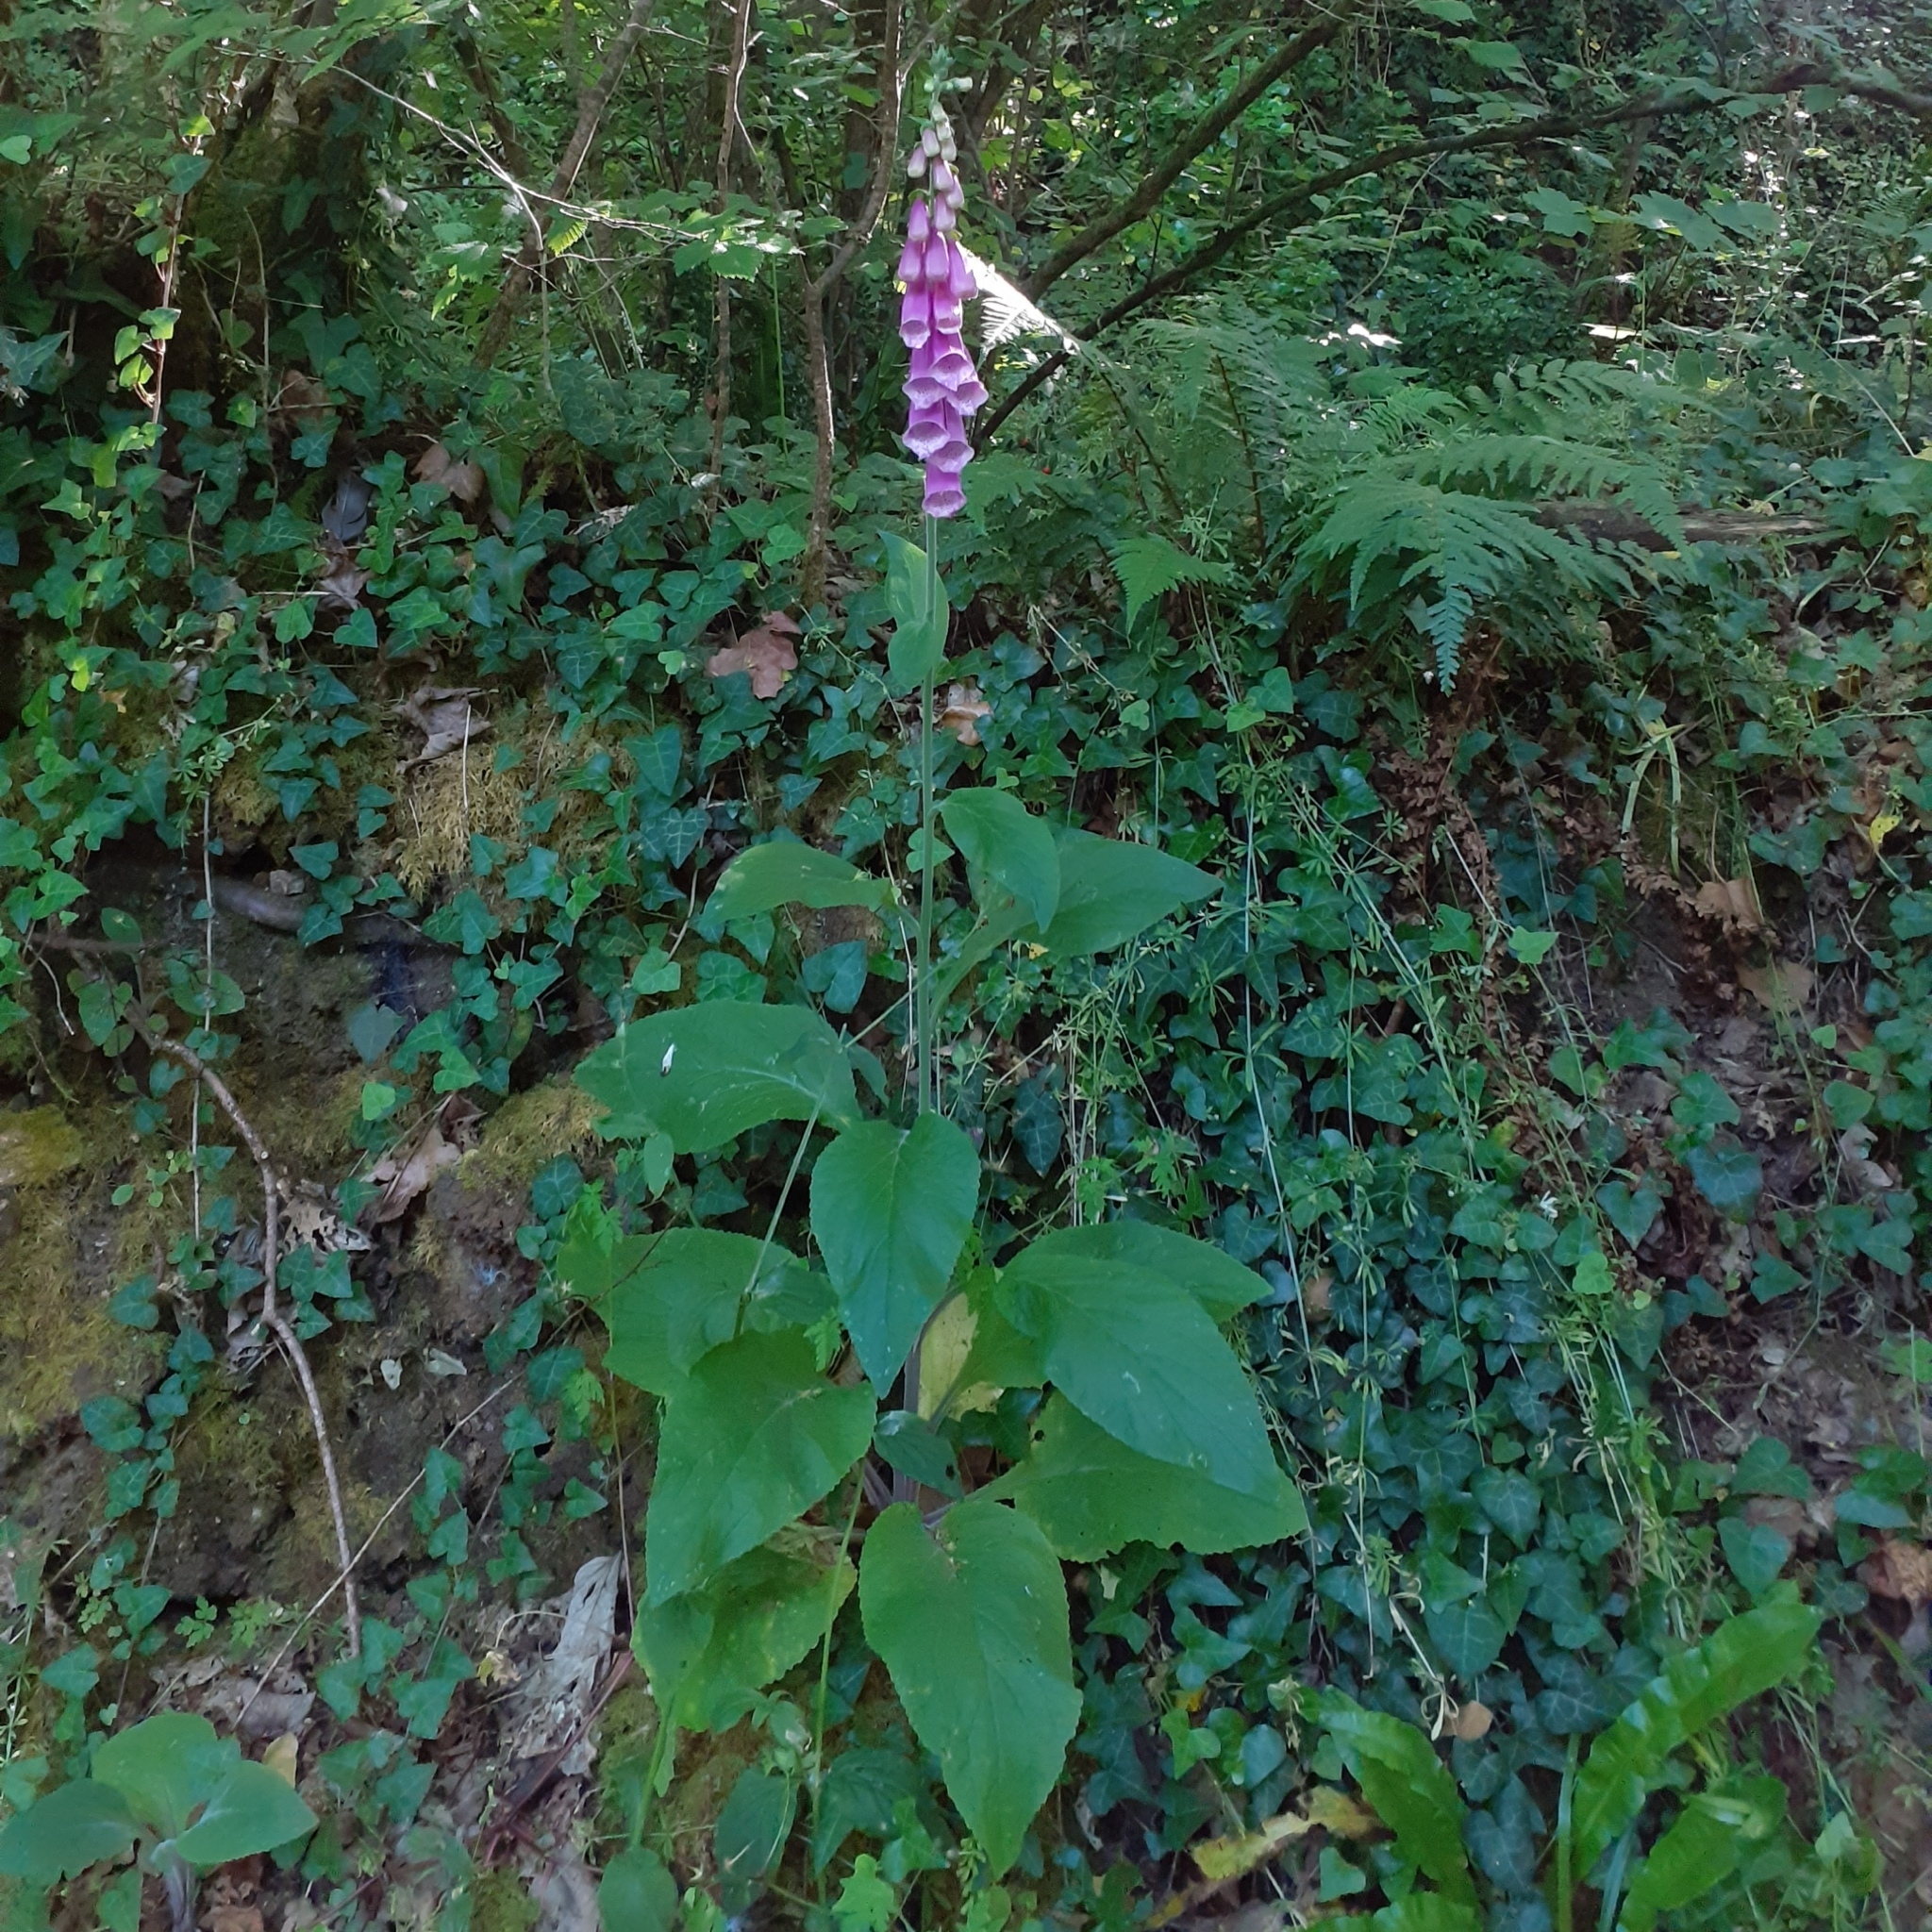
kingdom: Plantae
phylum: Tracheophyta
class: Magnoliopsida
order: Lamiales
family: Plantaginaceae
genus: Digitalis
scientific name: Digitalis purpurea
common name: Foxglove
